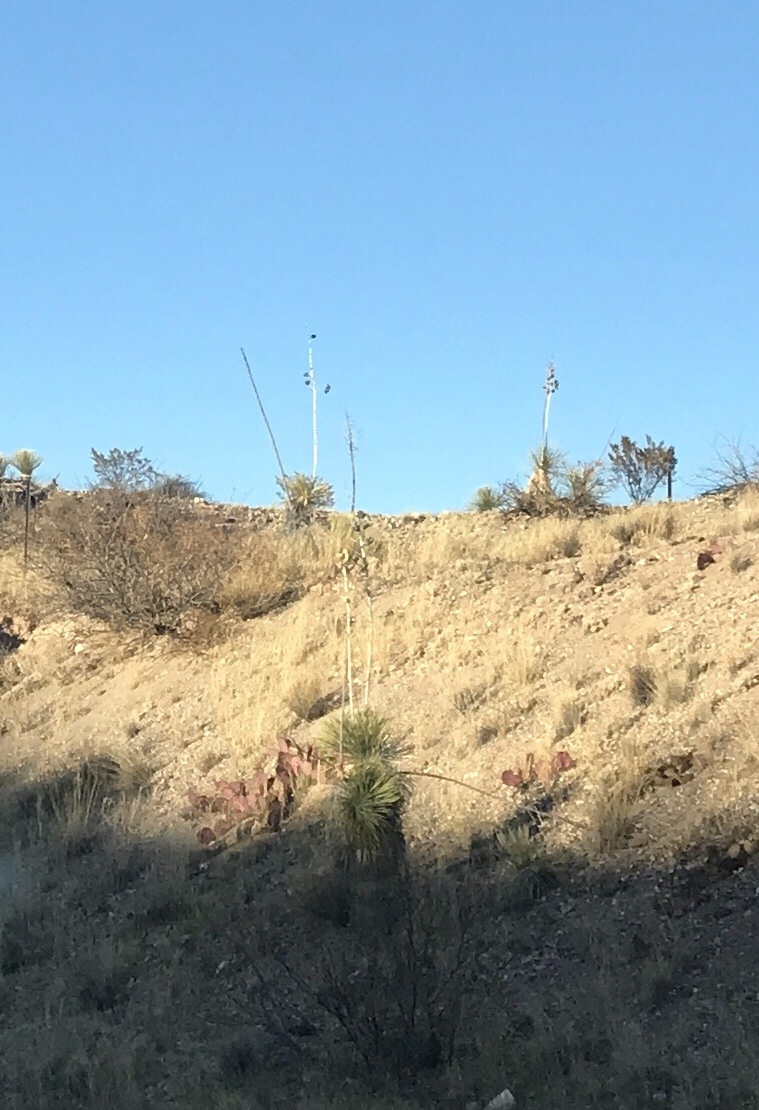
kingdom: Plantae
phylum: Tracheophyta
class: Liliopsida
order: Asparagales
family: Asparagaceae
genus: Yucca
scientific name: Yucca elata
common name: Palmella
